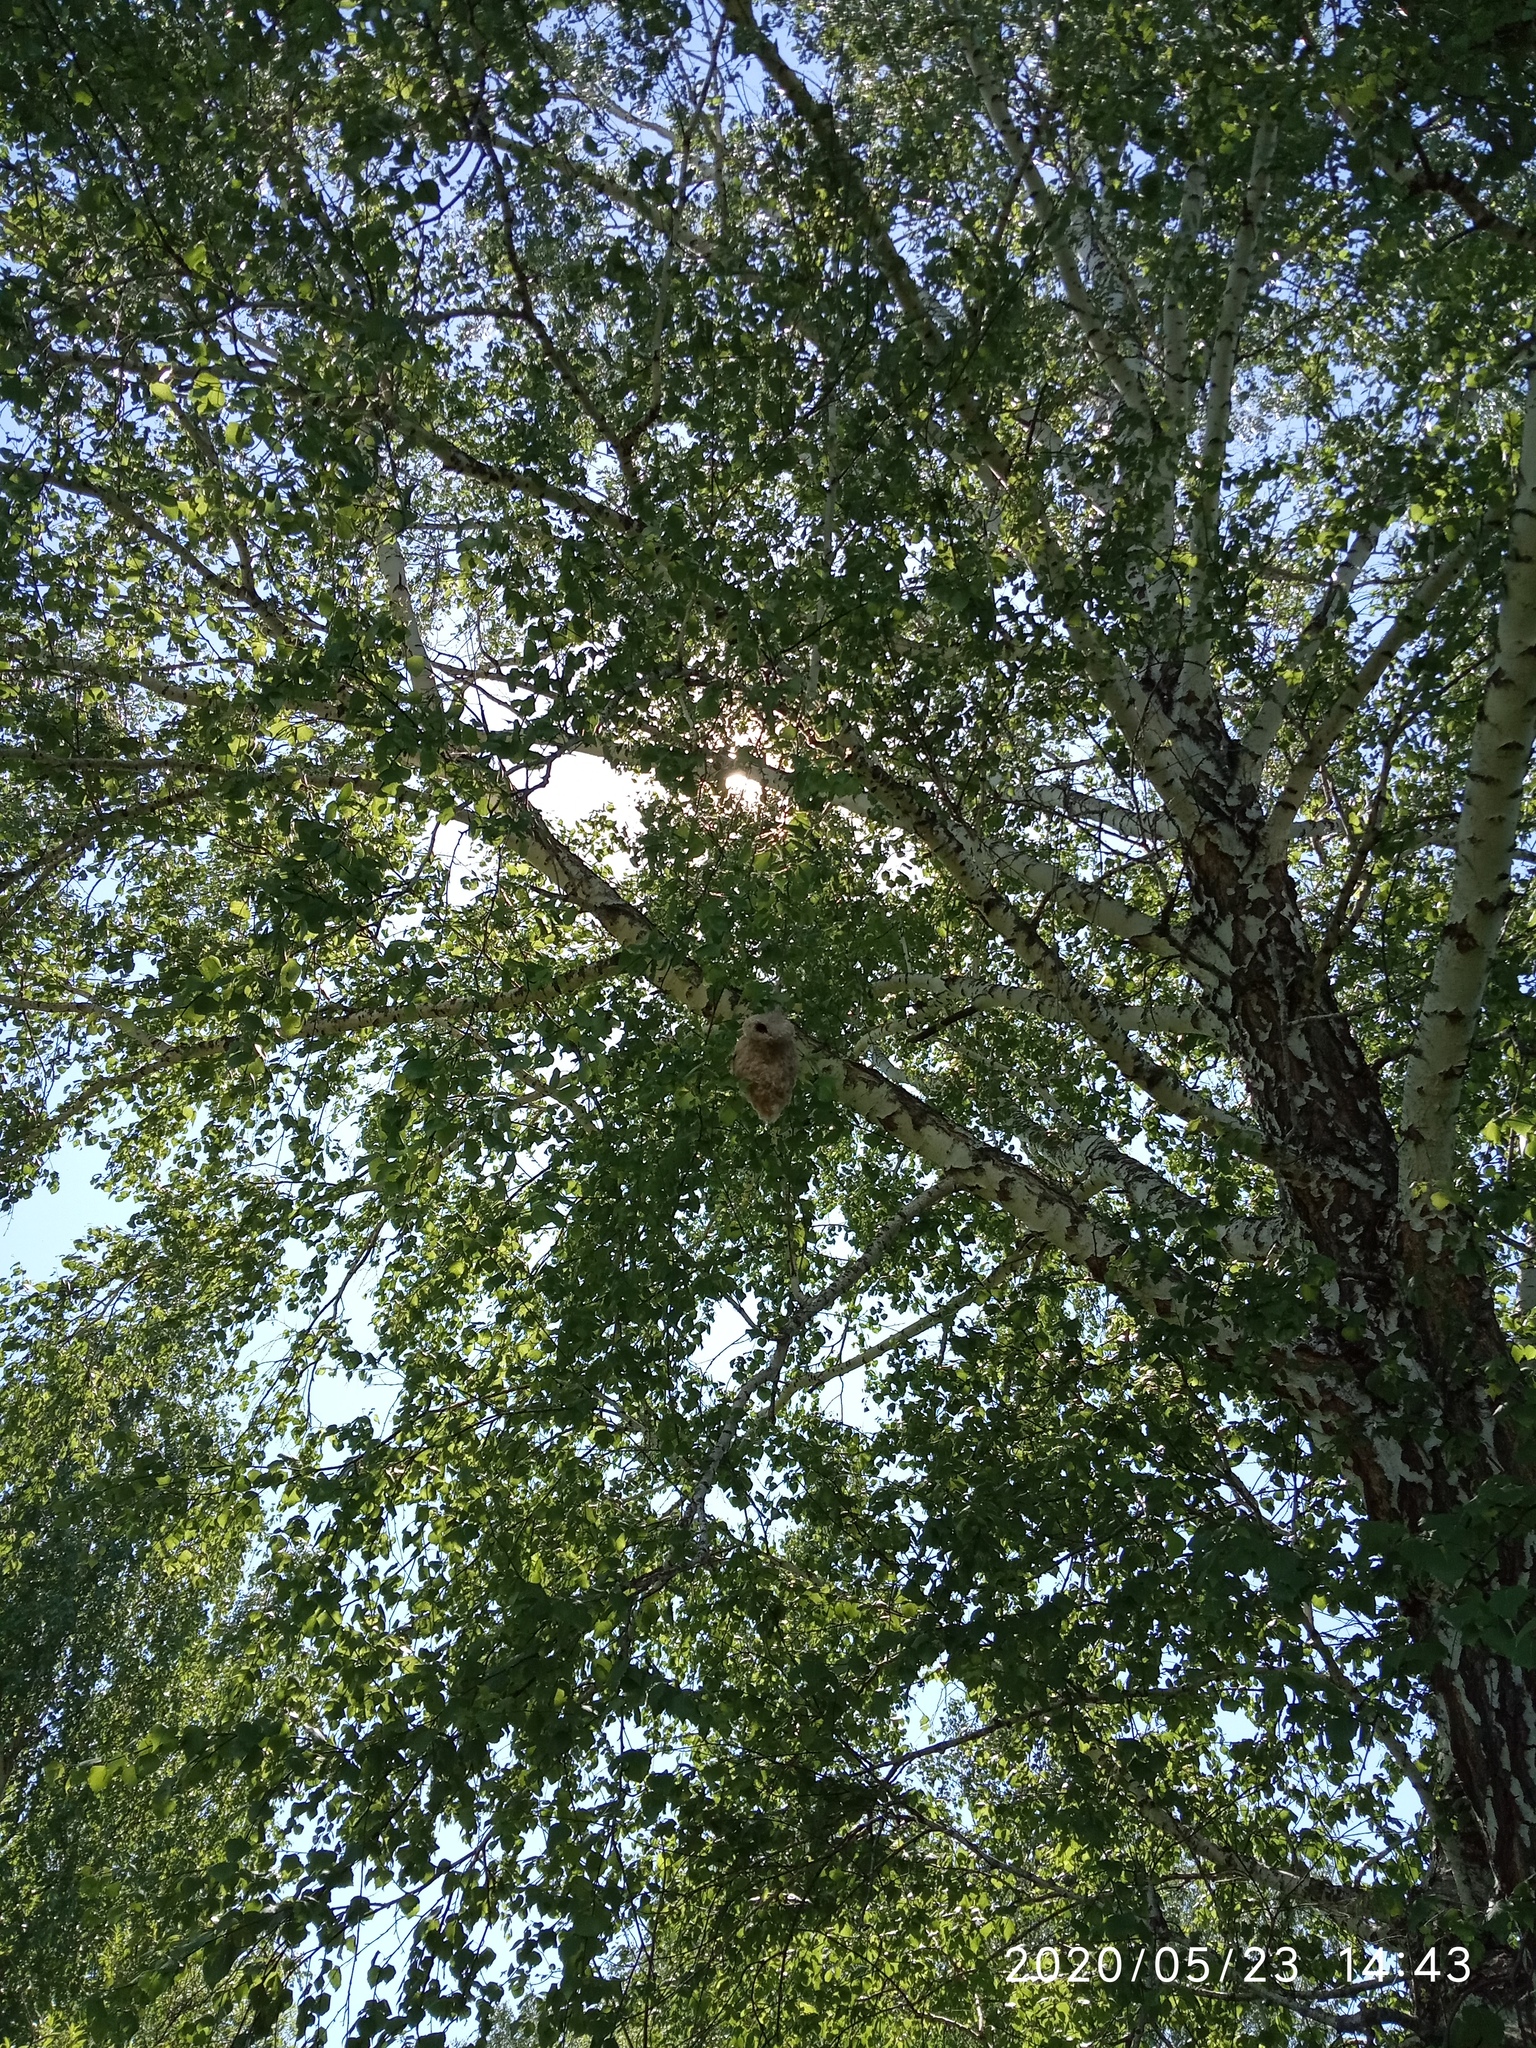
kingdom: Plantae
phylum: Tracheophyta
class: Magnoliopsida
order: Fagales
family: Betulaceae
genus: Betula
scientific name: Betula pendula
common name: Silver birch
